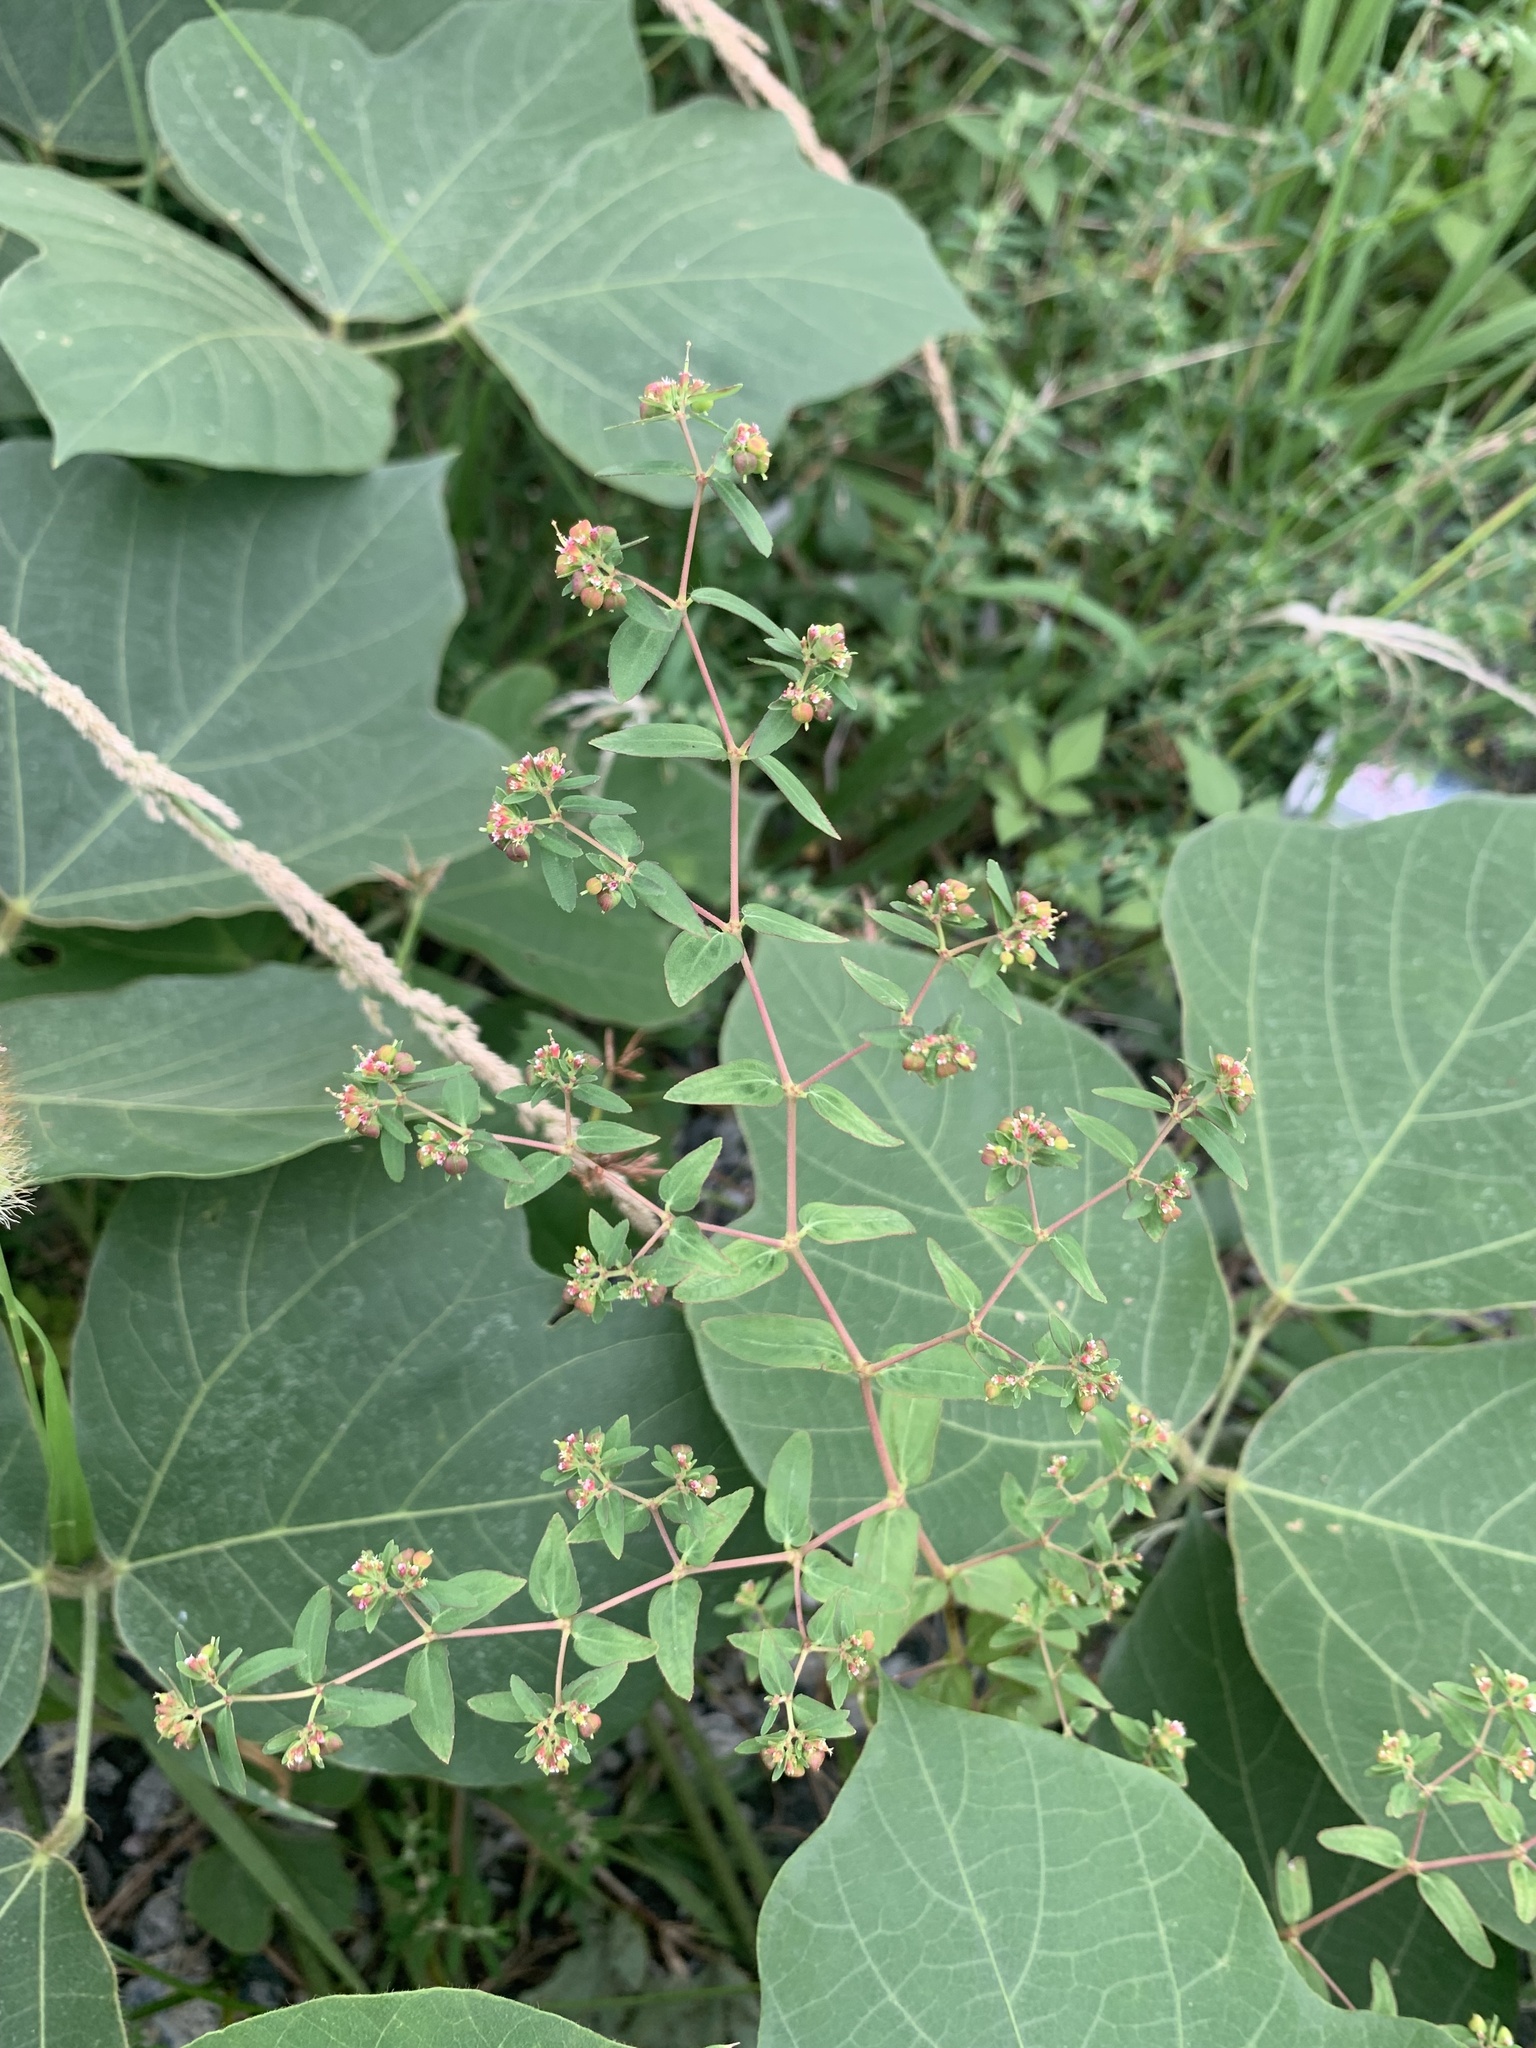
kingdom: Plantae
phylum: Tracheophyta
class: Magnoliopsida
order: Malpighiales
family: Euphorbiaceae
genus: Euphorbia
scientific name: Euphorbia nutans
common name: Eyebane
